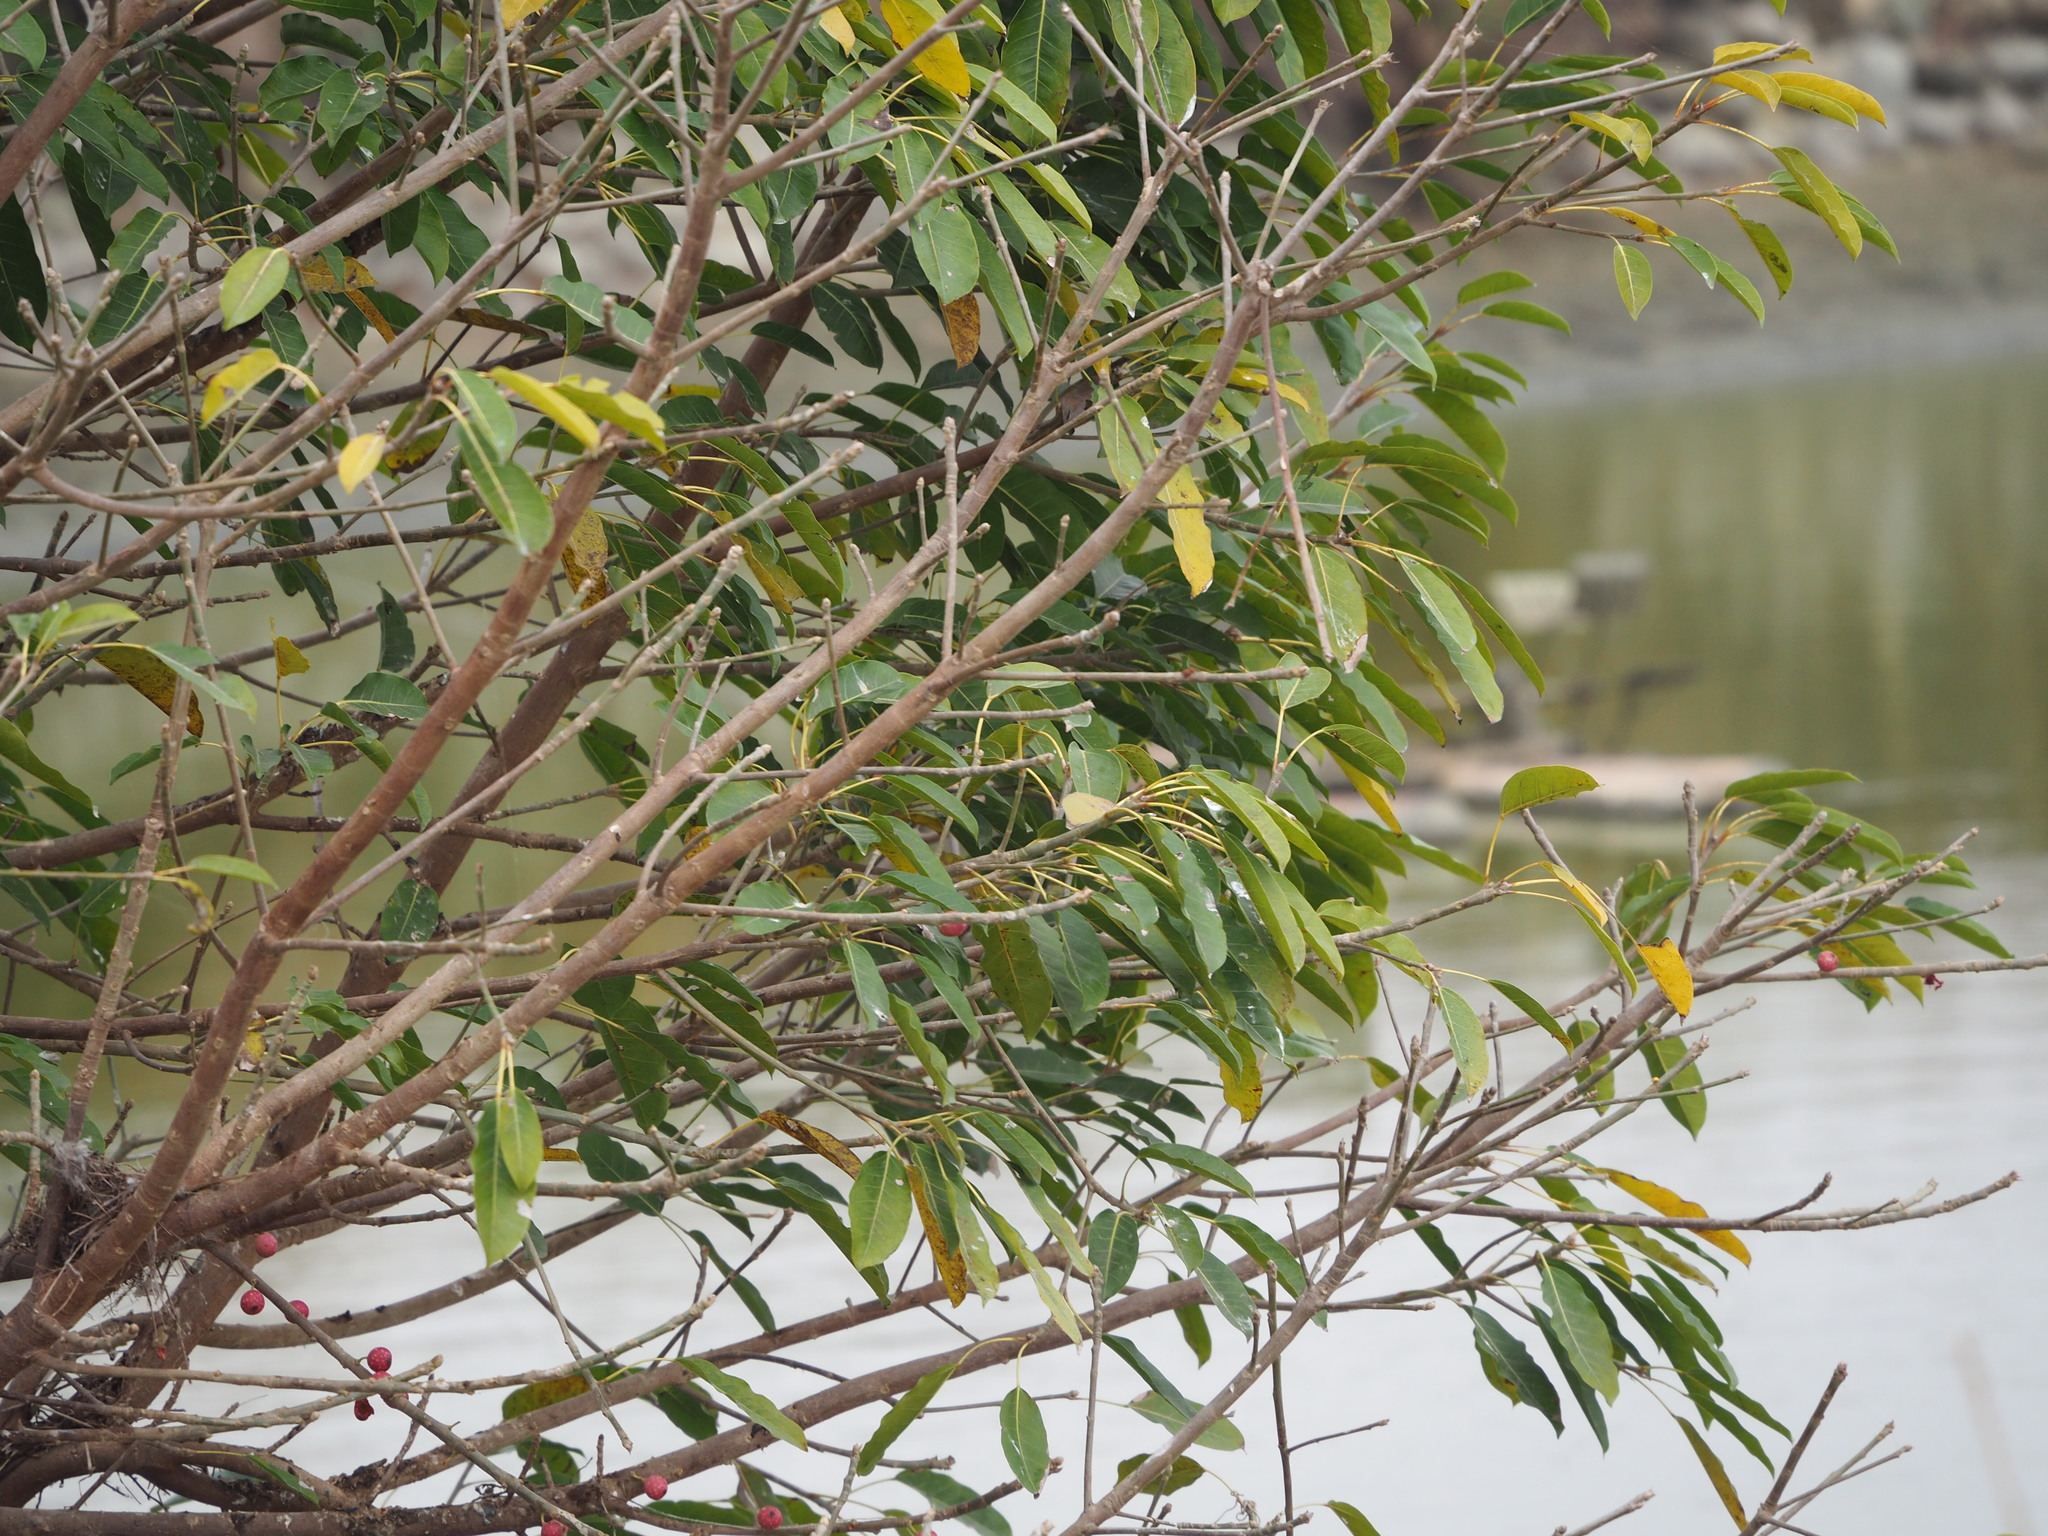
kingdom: Plantae
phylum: Tracheophyta
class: Magnoliopsida
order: Rosales
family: Moraceae
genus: Ficus
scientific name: Ficus subpisocarpa
